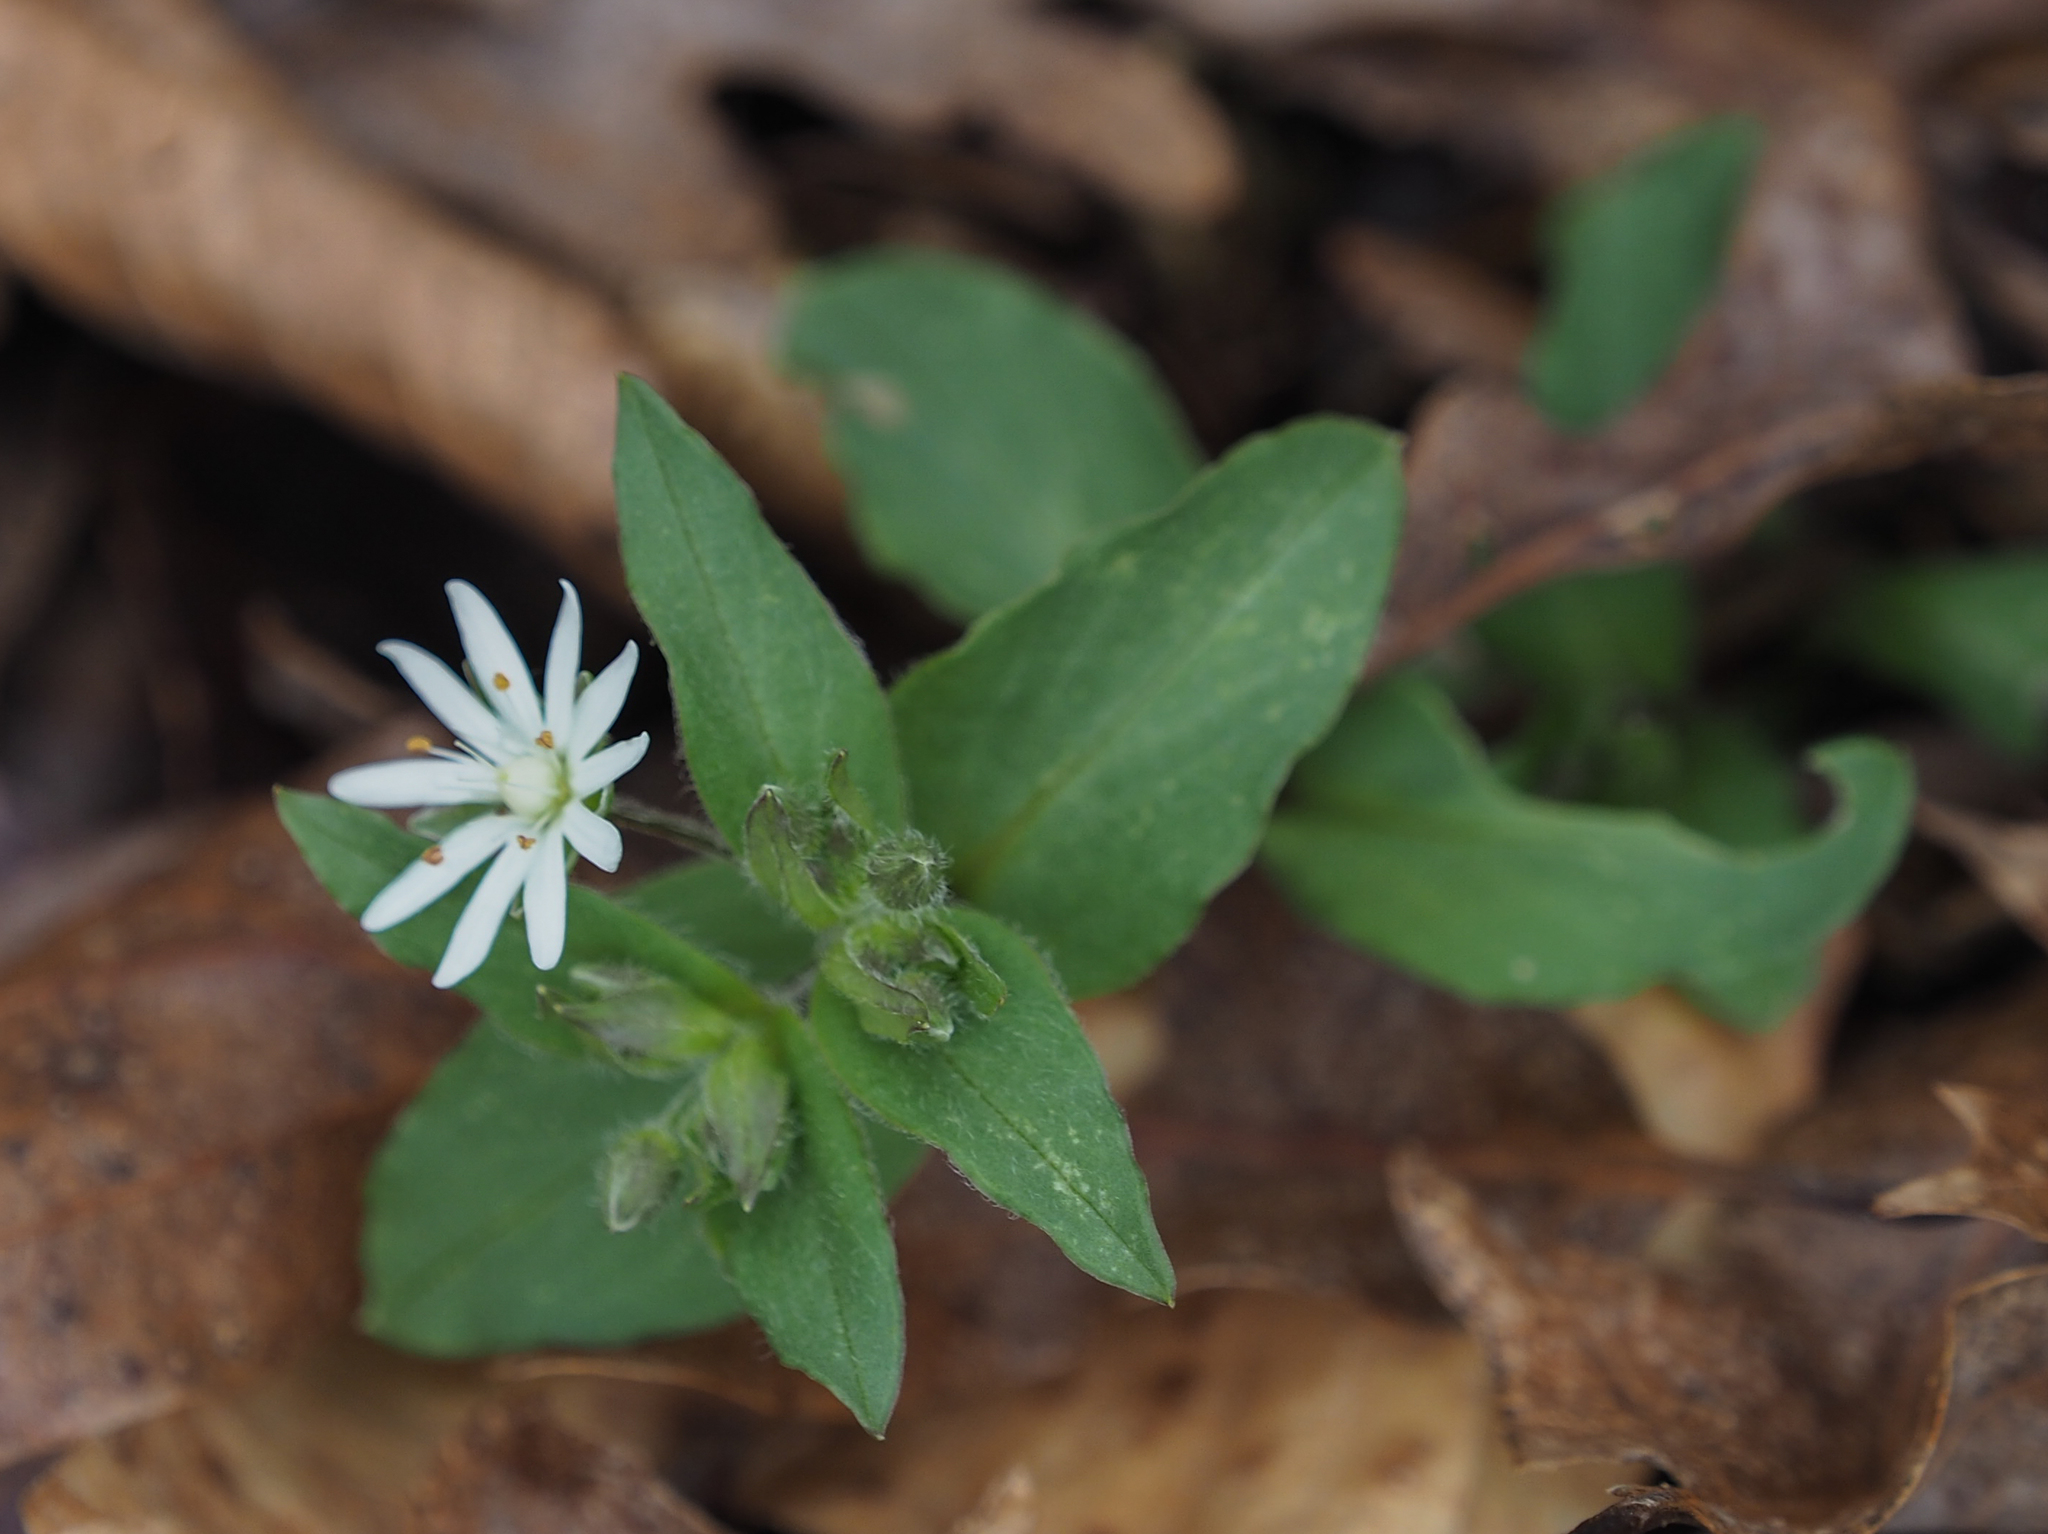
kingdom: Plantae
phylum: Tracheophyta
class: Magnoliopsida
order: Caryophyllales
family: Caryophyllaceae
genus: Stellaria
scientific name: Stellaria pubera
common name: Star chickweed
